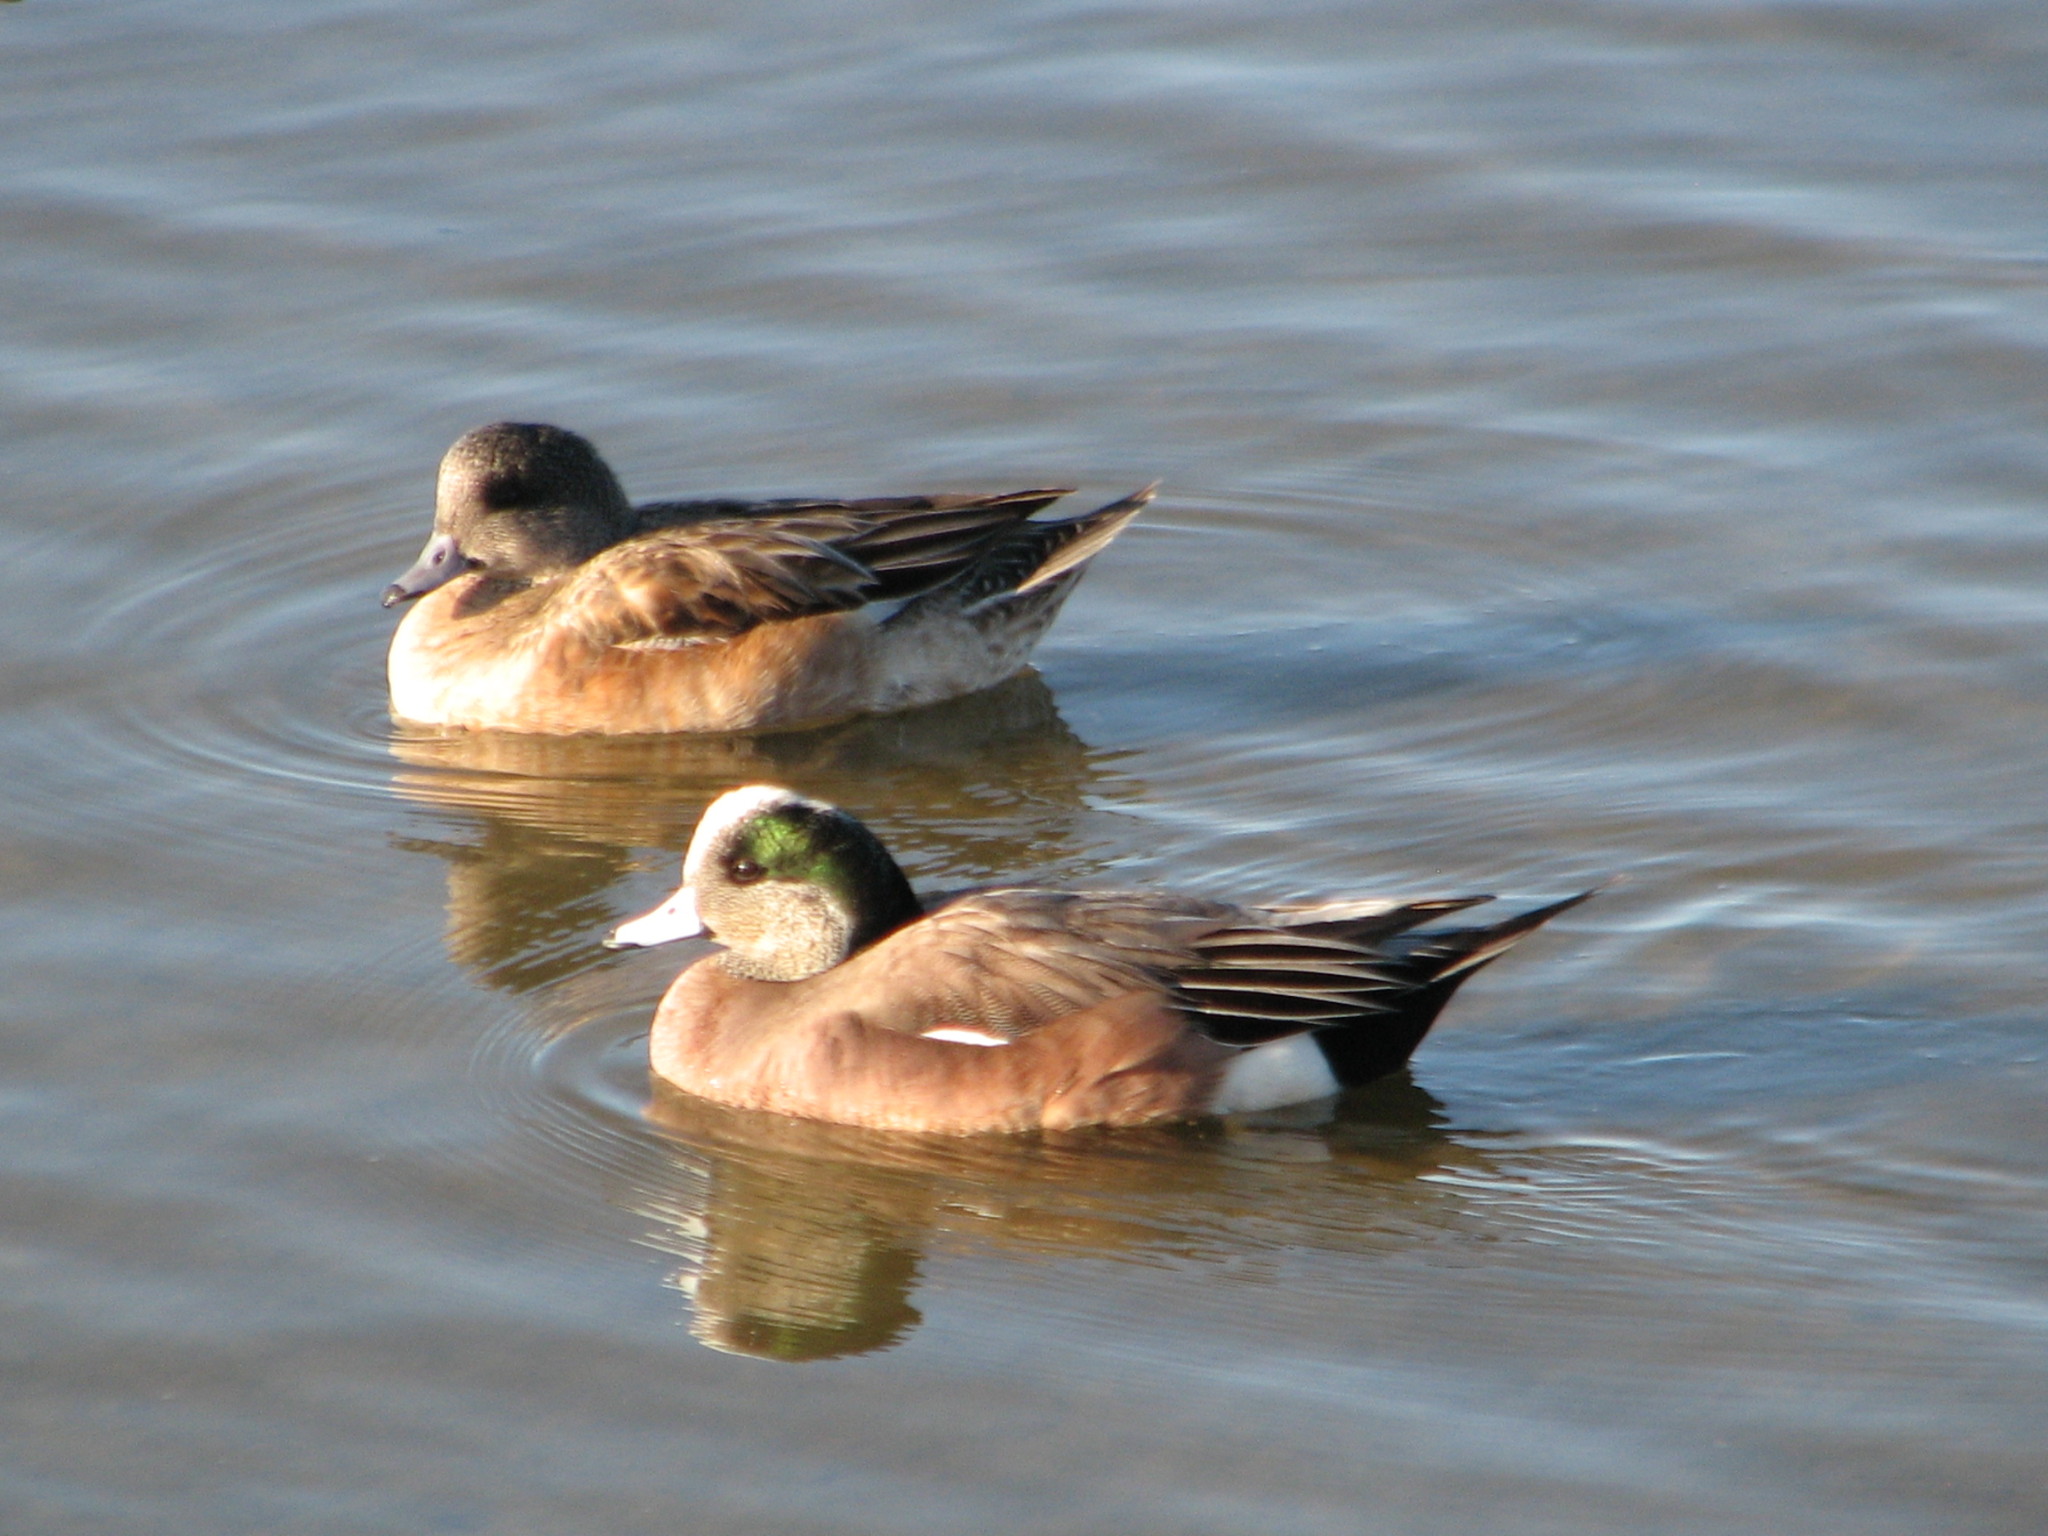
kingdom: Animalia
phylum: Chordata
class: Aves
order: Anseriformes
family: Anatidae
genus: Mareca
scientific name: Mareca americana
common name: American wigeon
